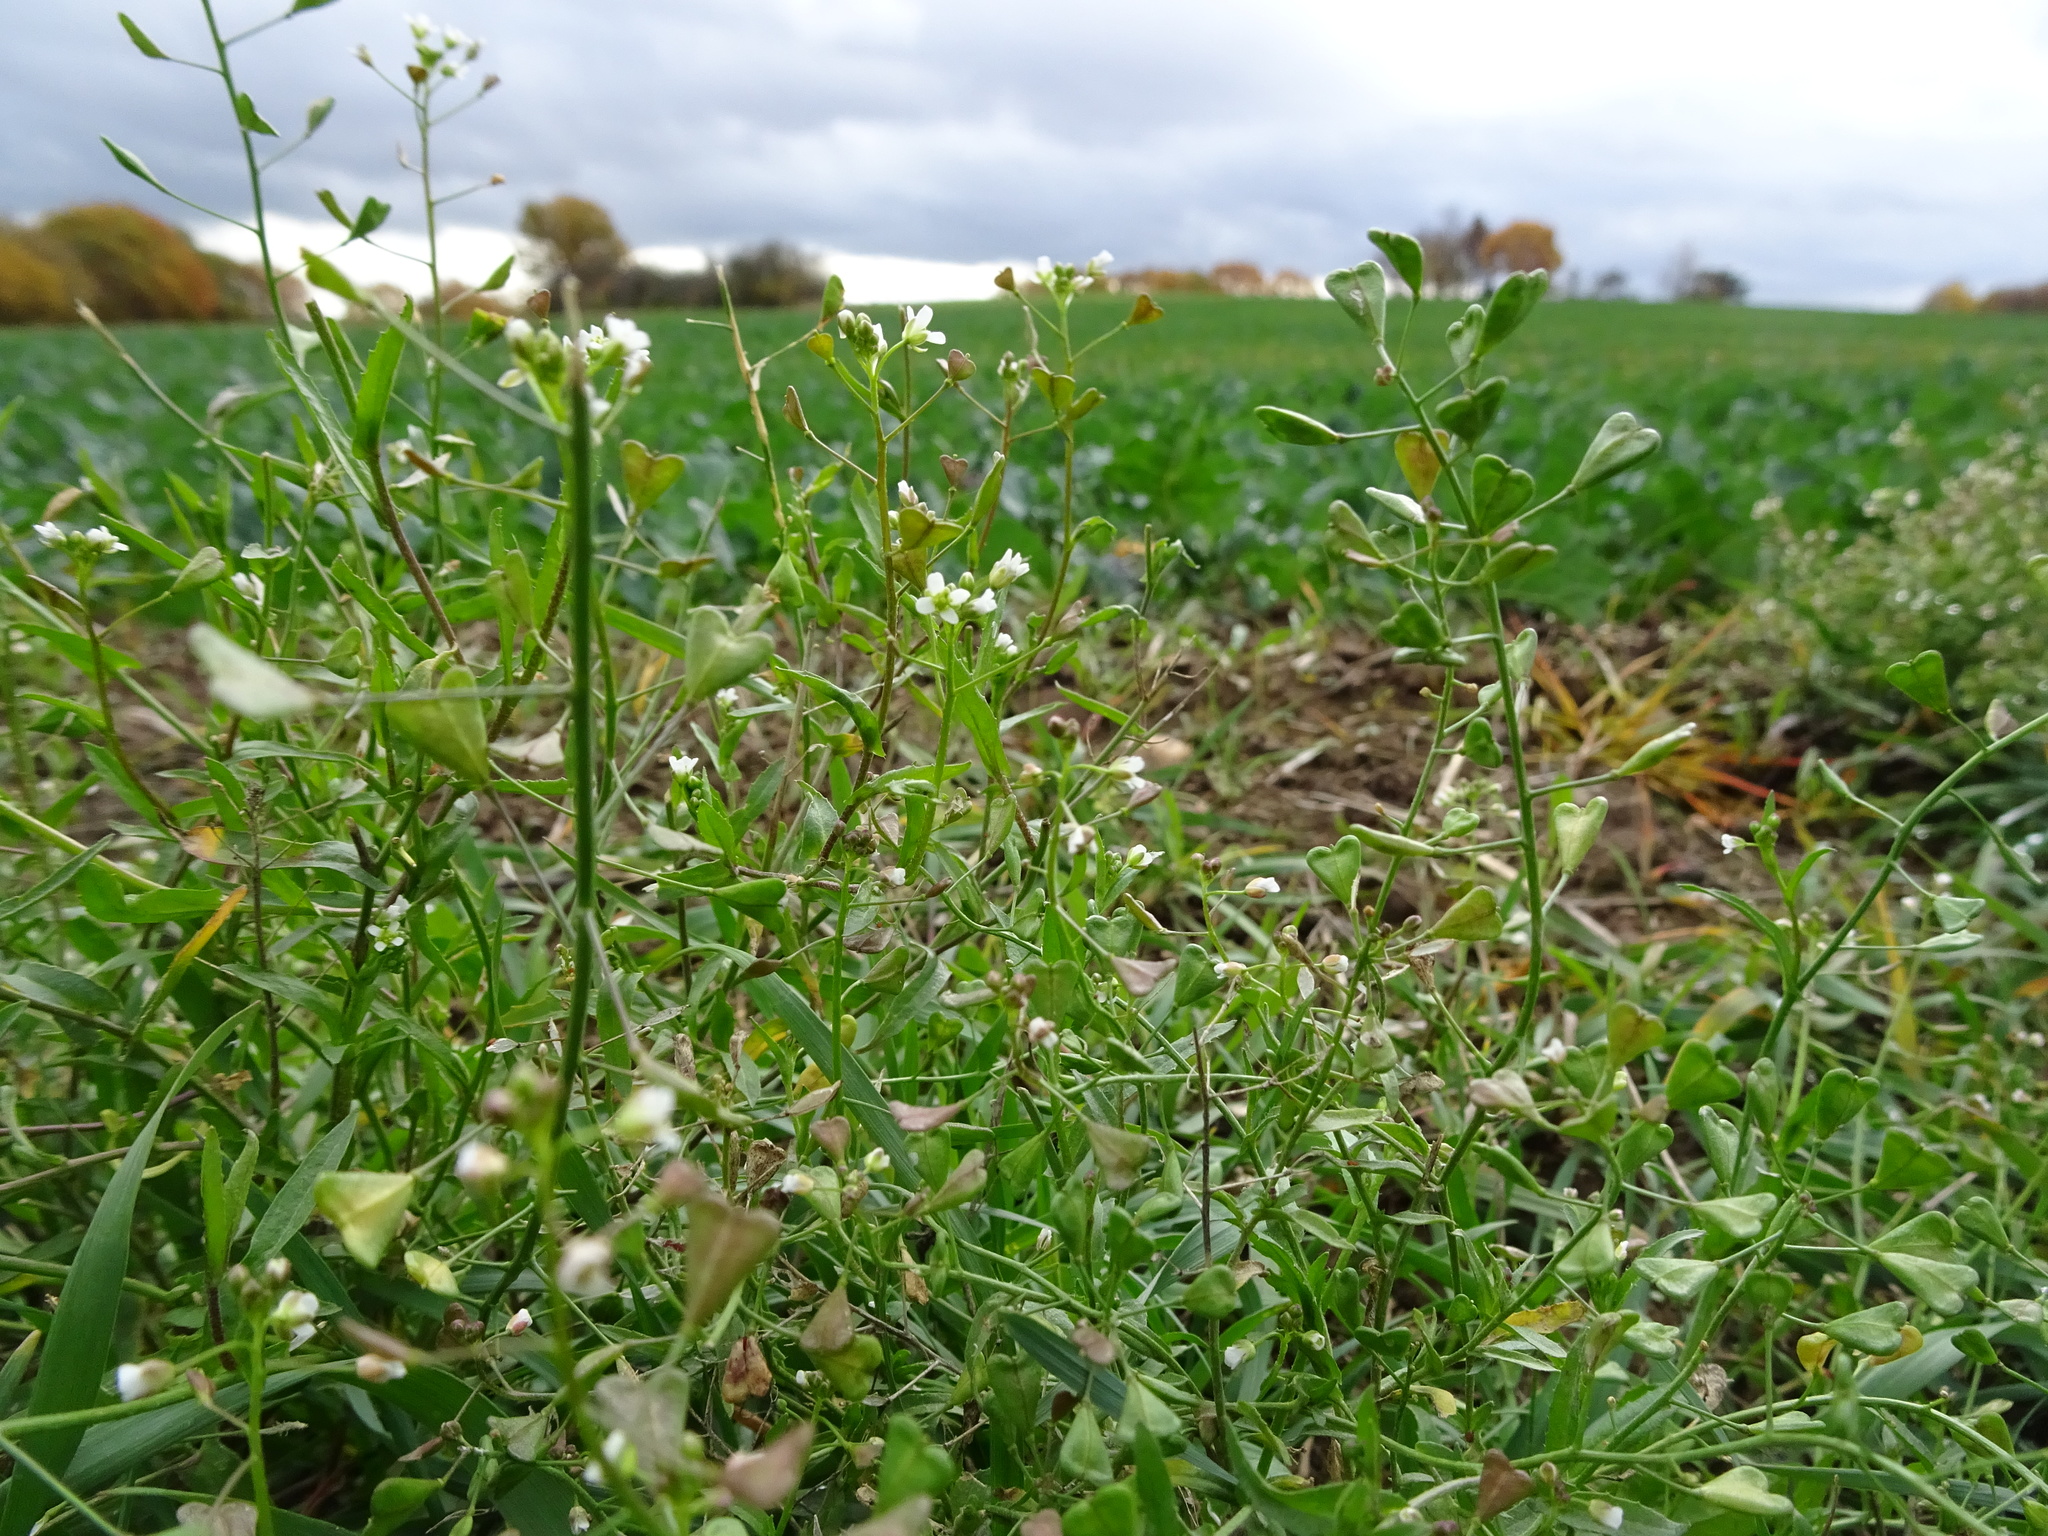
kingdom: Plantae
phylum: Tracheophyta
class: Magnoliopsida
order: Brassicales
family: Brassicaceae
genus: Capsella
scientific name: Capsella bursa-pastoris
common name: Shepherd's purse
